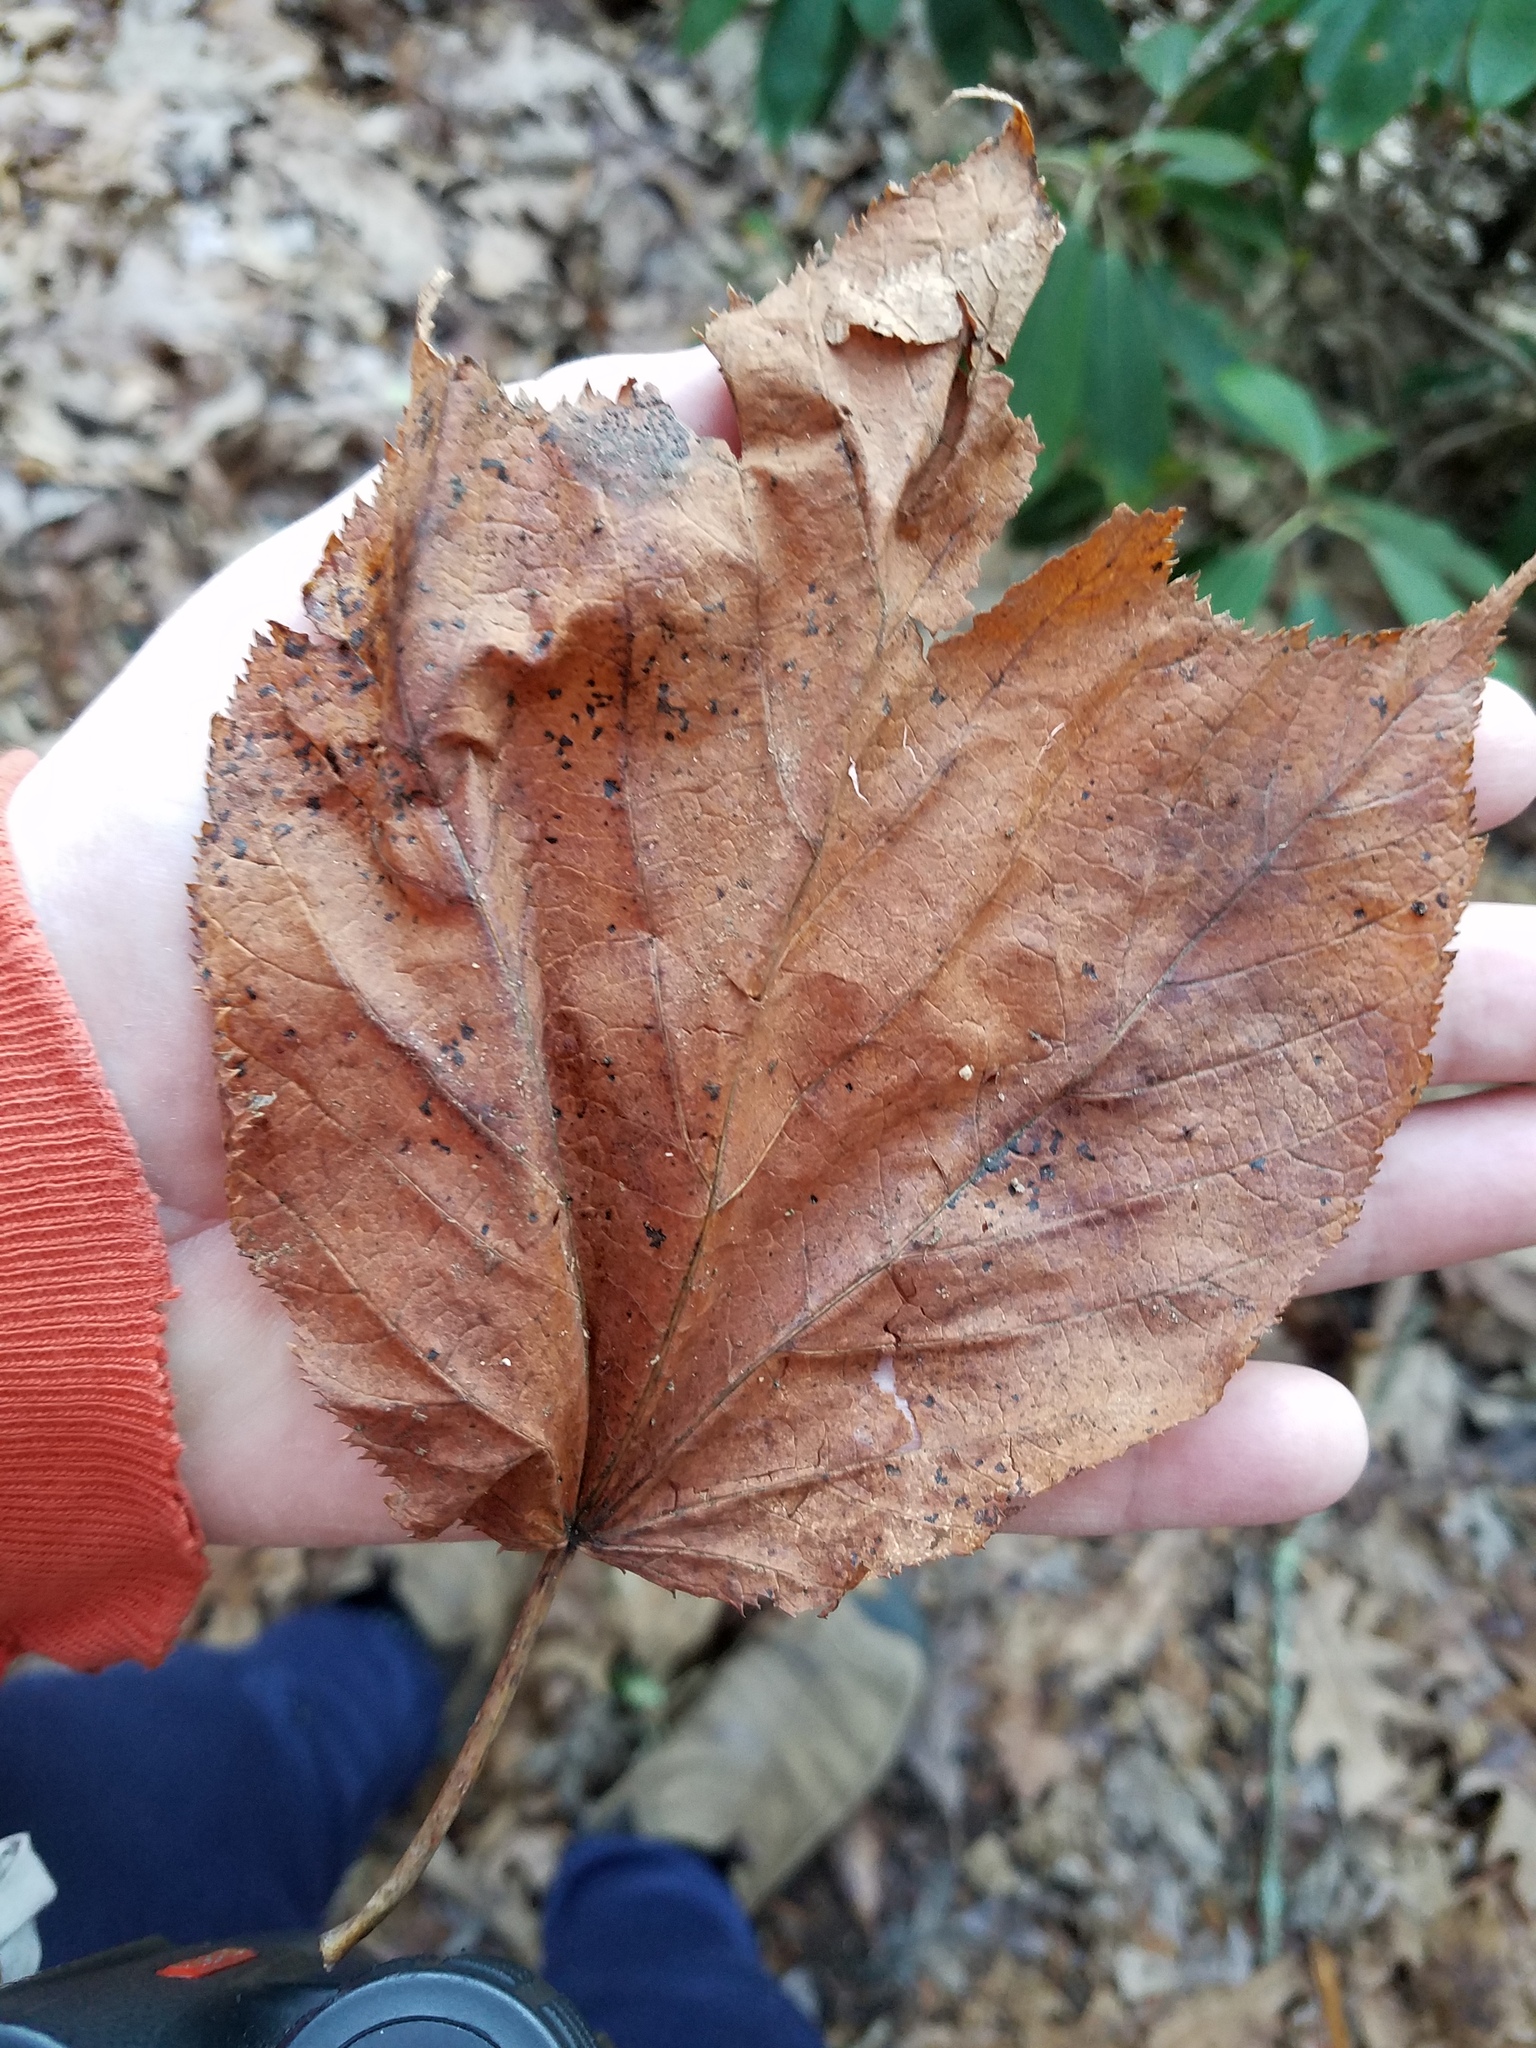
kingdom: Plantae
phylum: Tracheophyta
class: Magnoliopsida
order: Sapindales
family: Sapindaceae
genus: Acer
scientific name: Acer pensylvanicum
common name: Moosewood
